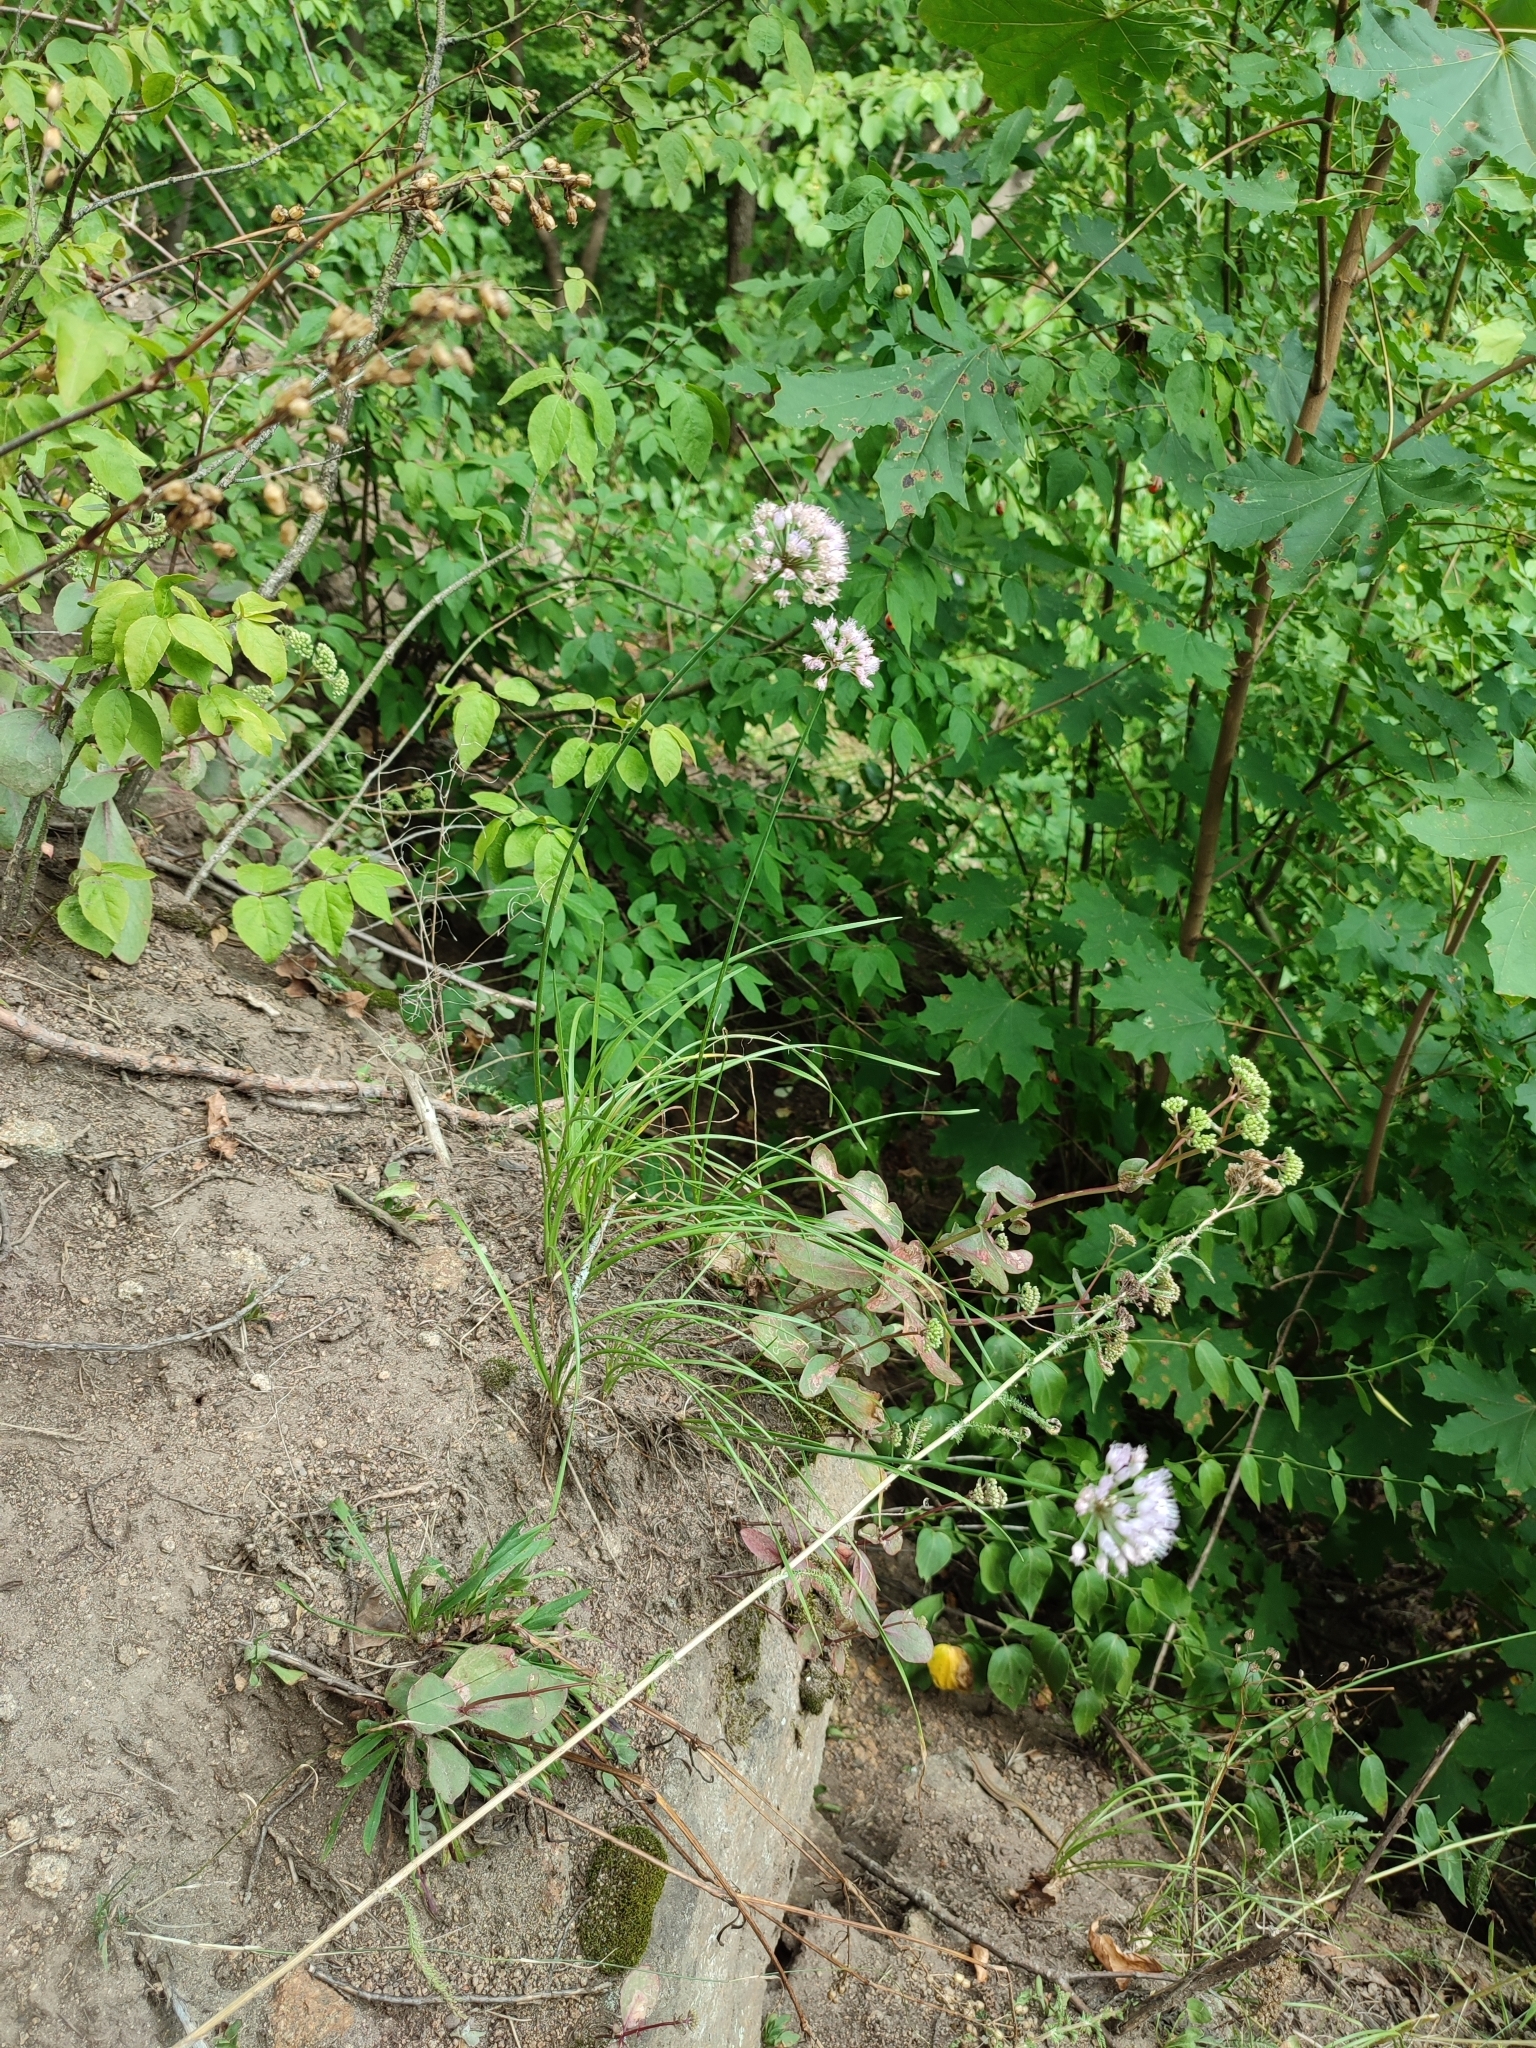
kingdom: Plantae
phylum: Tracheophyta
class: Liliopsida
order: Asparagales
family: Amaryllidaceae
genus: Allium
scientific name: Allium lusitanicum
